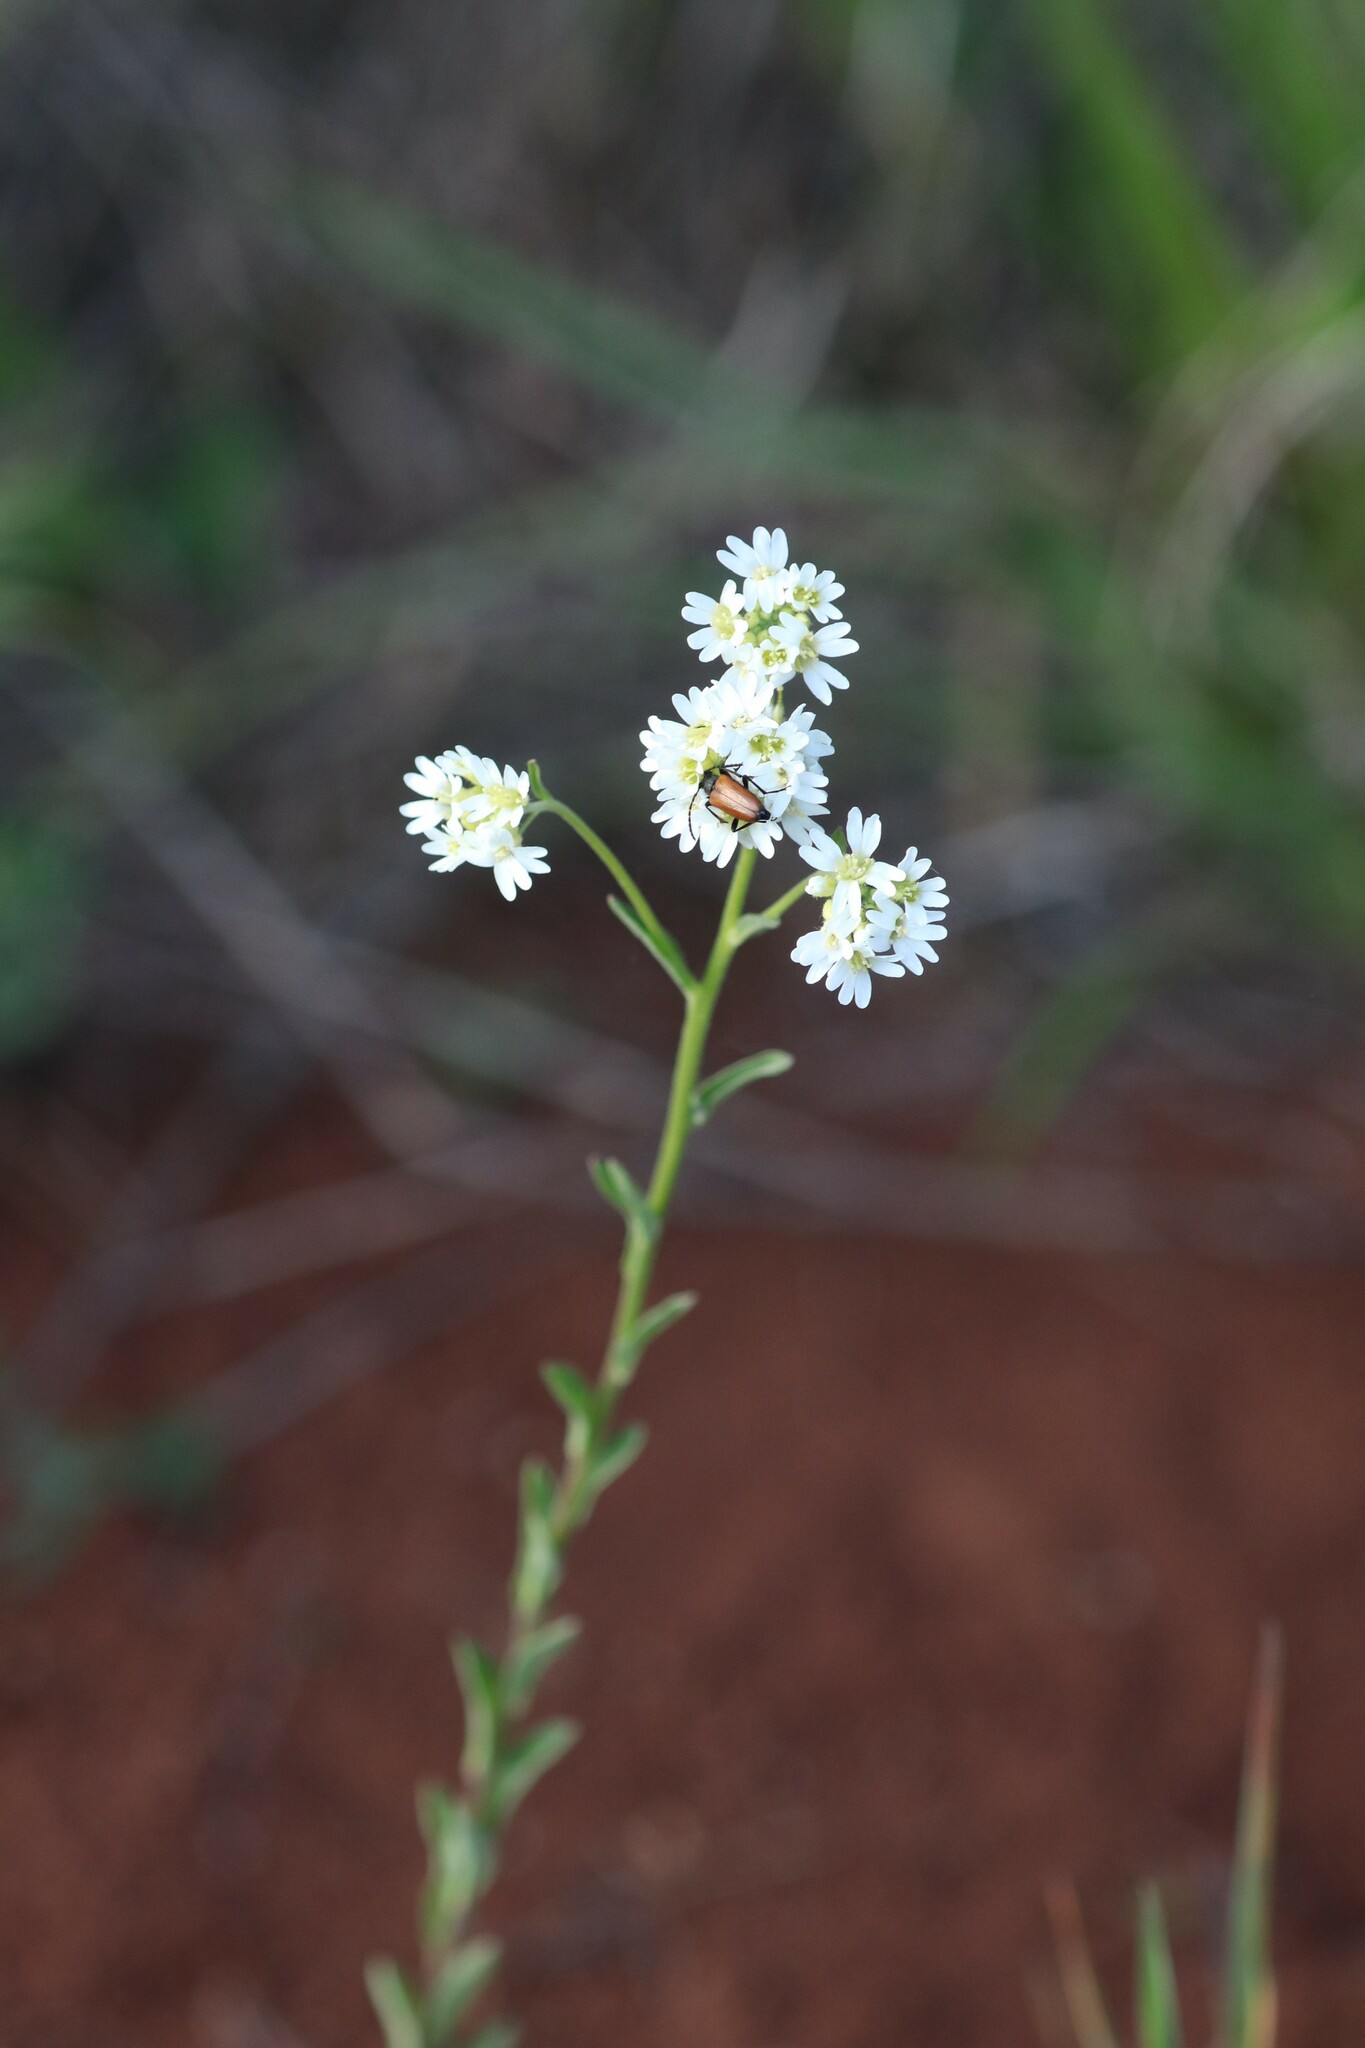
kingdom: Plantae
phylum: Tracheophyta
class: Magnoliopsida
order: Brassicales
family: Brassicaceae
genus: Berteroa
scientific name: Berteroa incana
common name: Hoary alison
